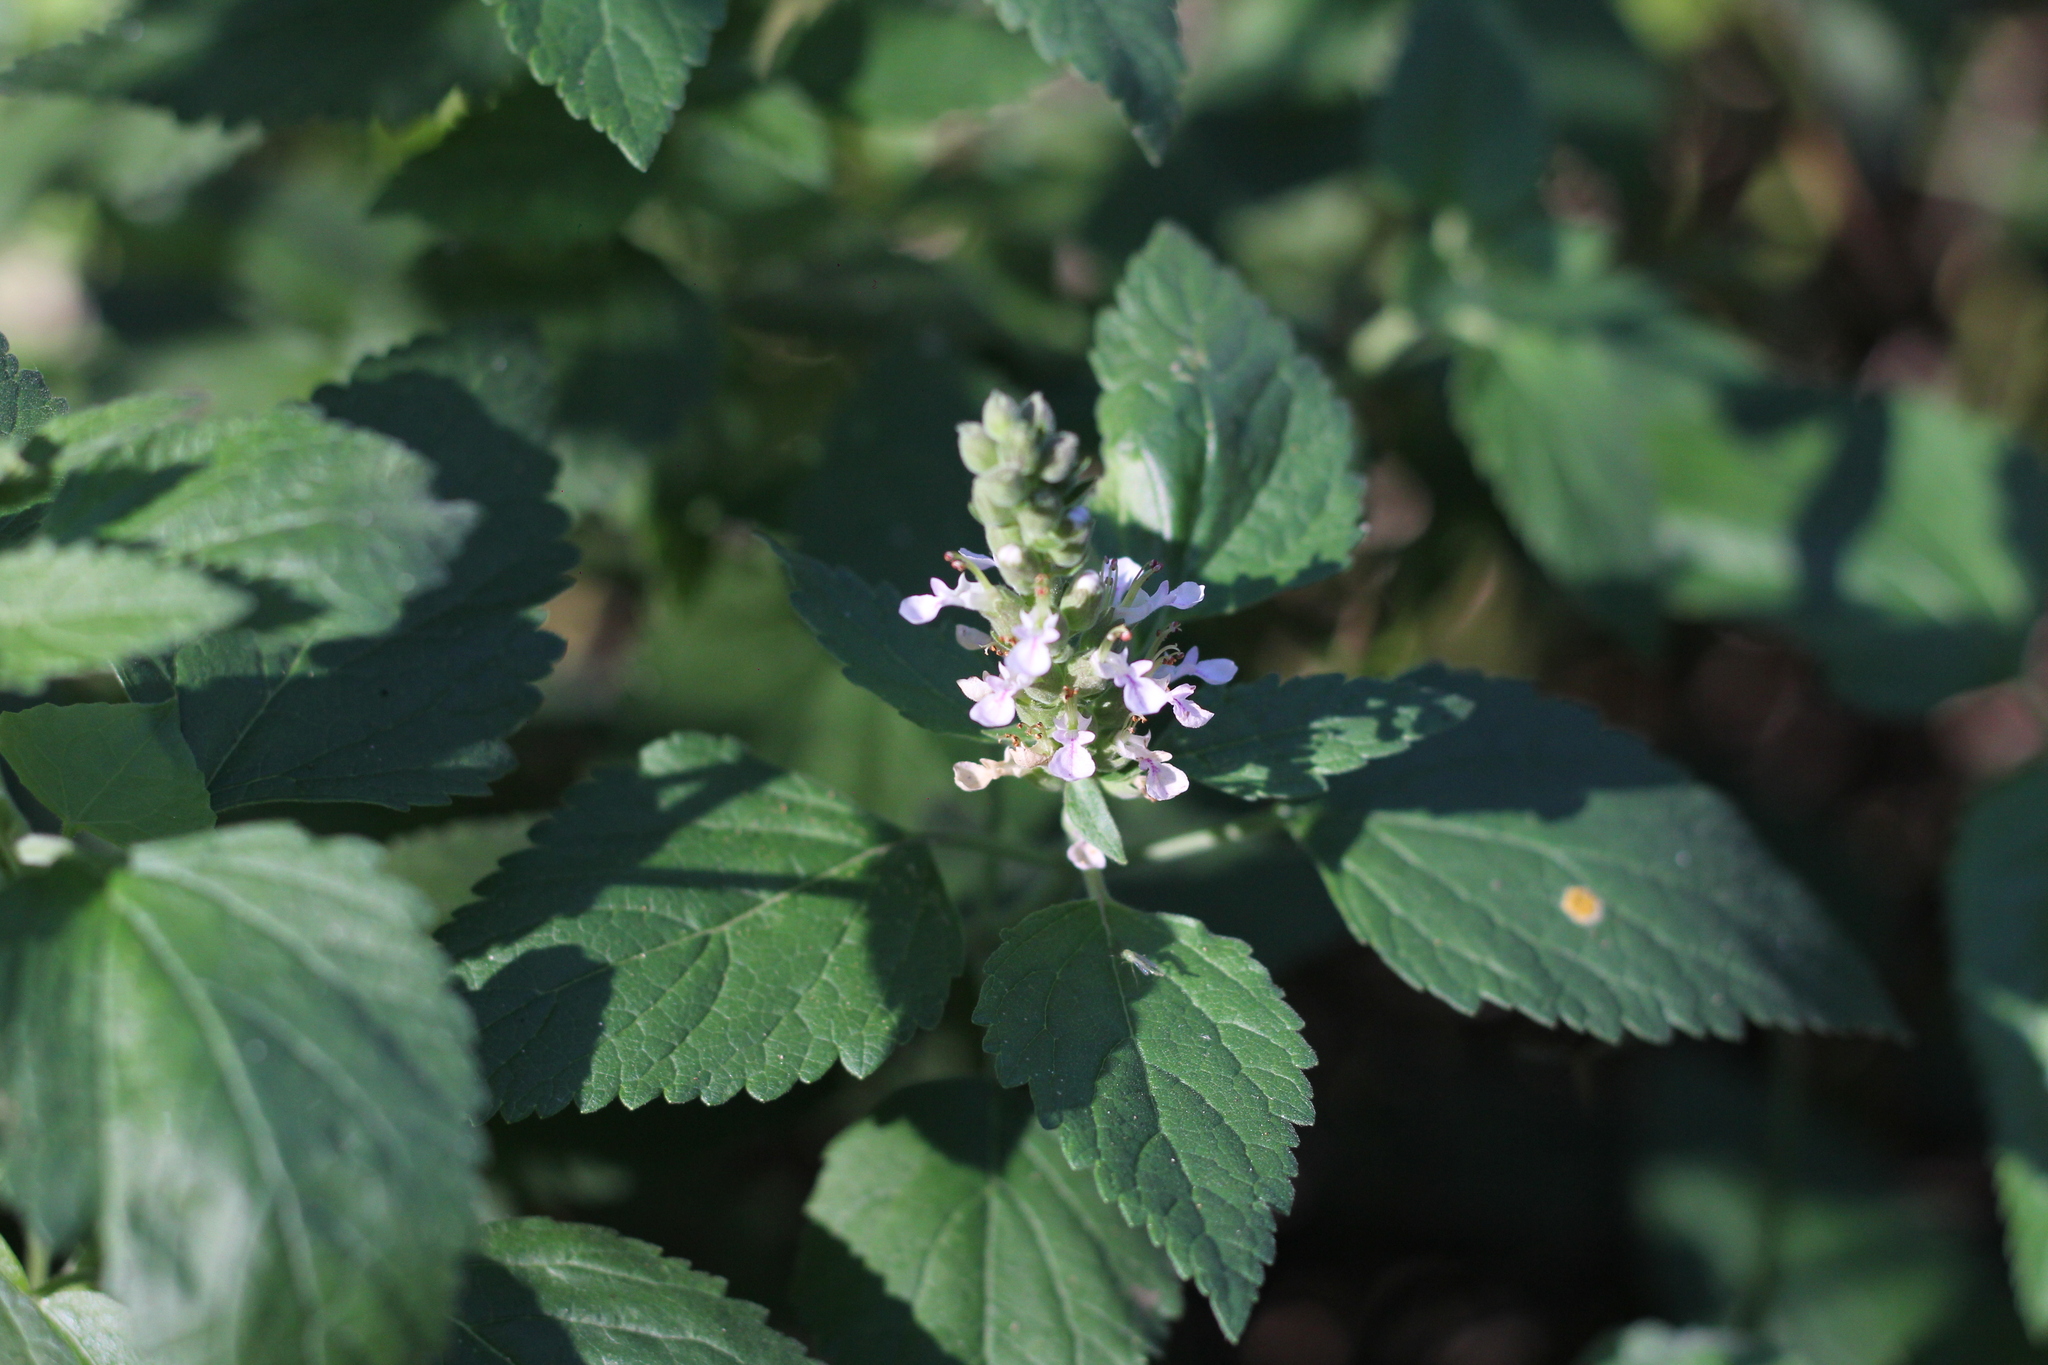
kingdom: Plantae
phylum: Tracheophyta
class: Magnoliopsida
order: Lamiales
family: Lamiaceae
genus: Teucrium
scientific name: Teucrium vesicarium
